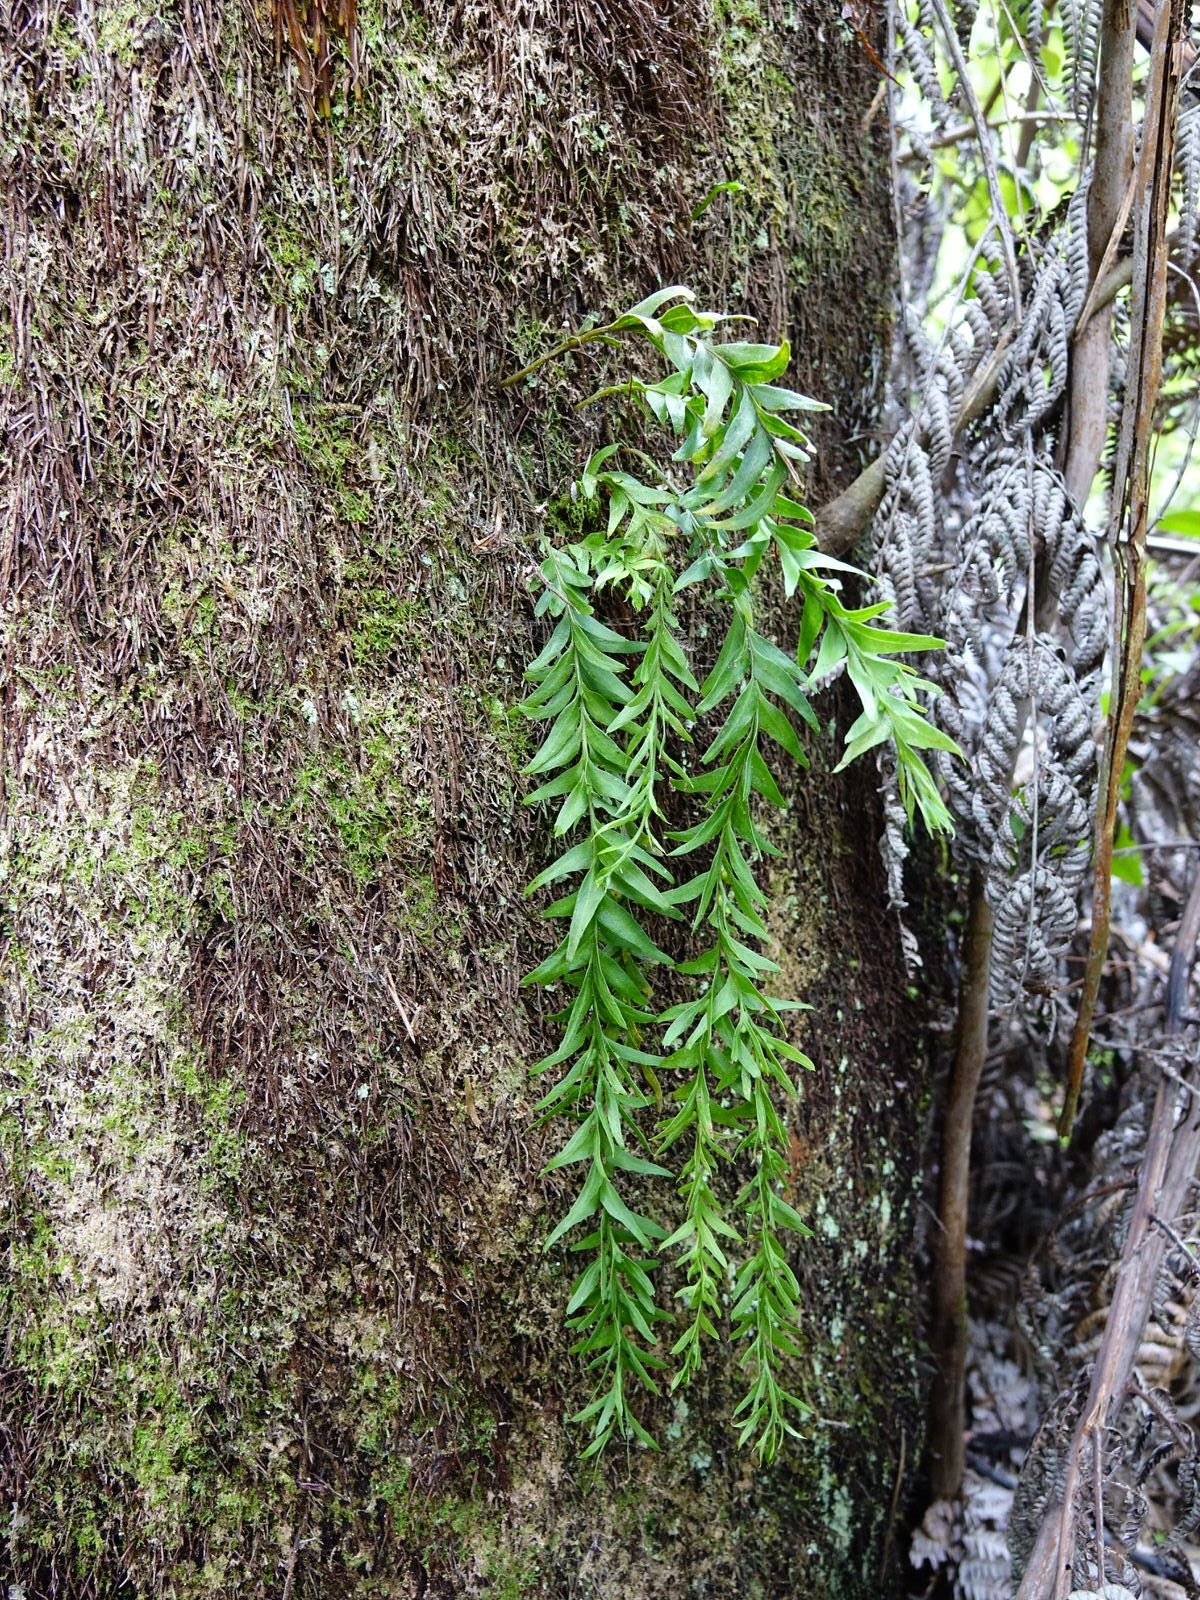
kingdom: Plantae
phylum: Tracheophyta
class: Polypodiopsida
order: Psilotales
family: Psilotaceae
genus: Tmesipteris
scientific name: Tmesipteris elongata
